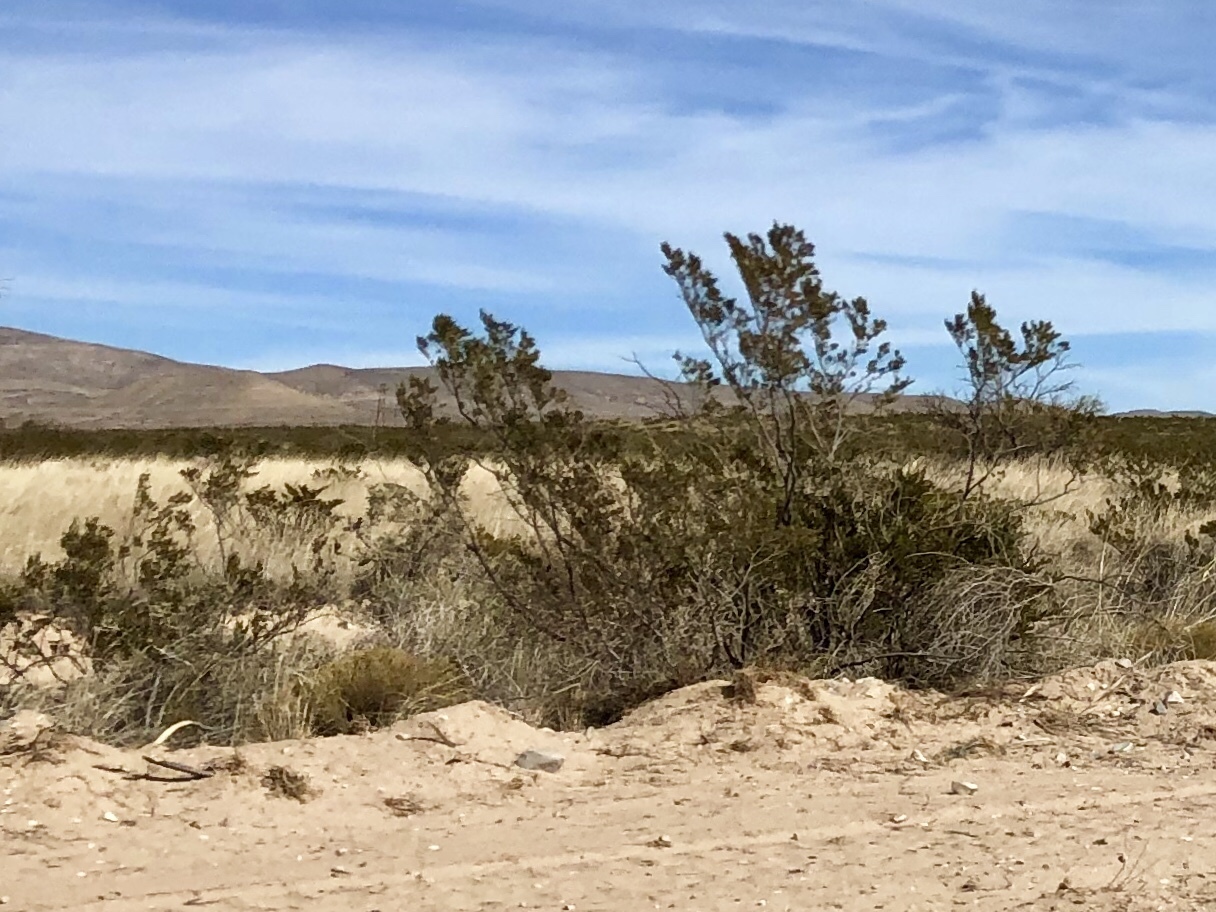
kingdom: Plantae
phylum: Tracheophyta
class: Magnoliopsida
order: Zygophyllales
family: Zygophyllaceae
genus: Larrea
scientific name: Larrea tridentata
